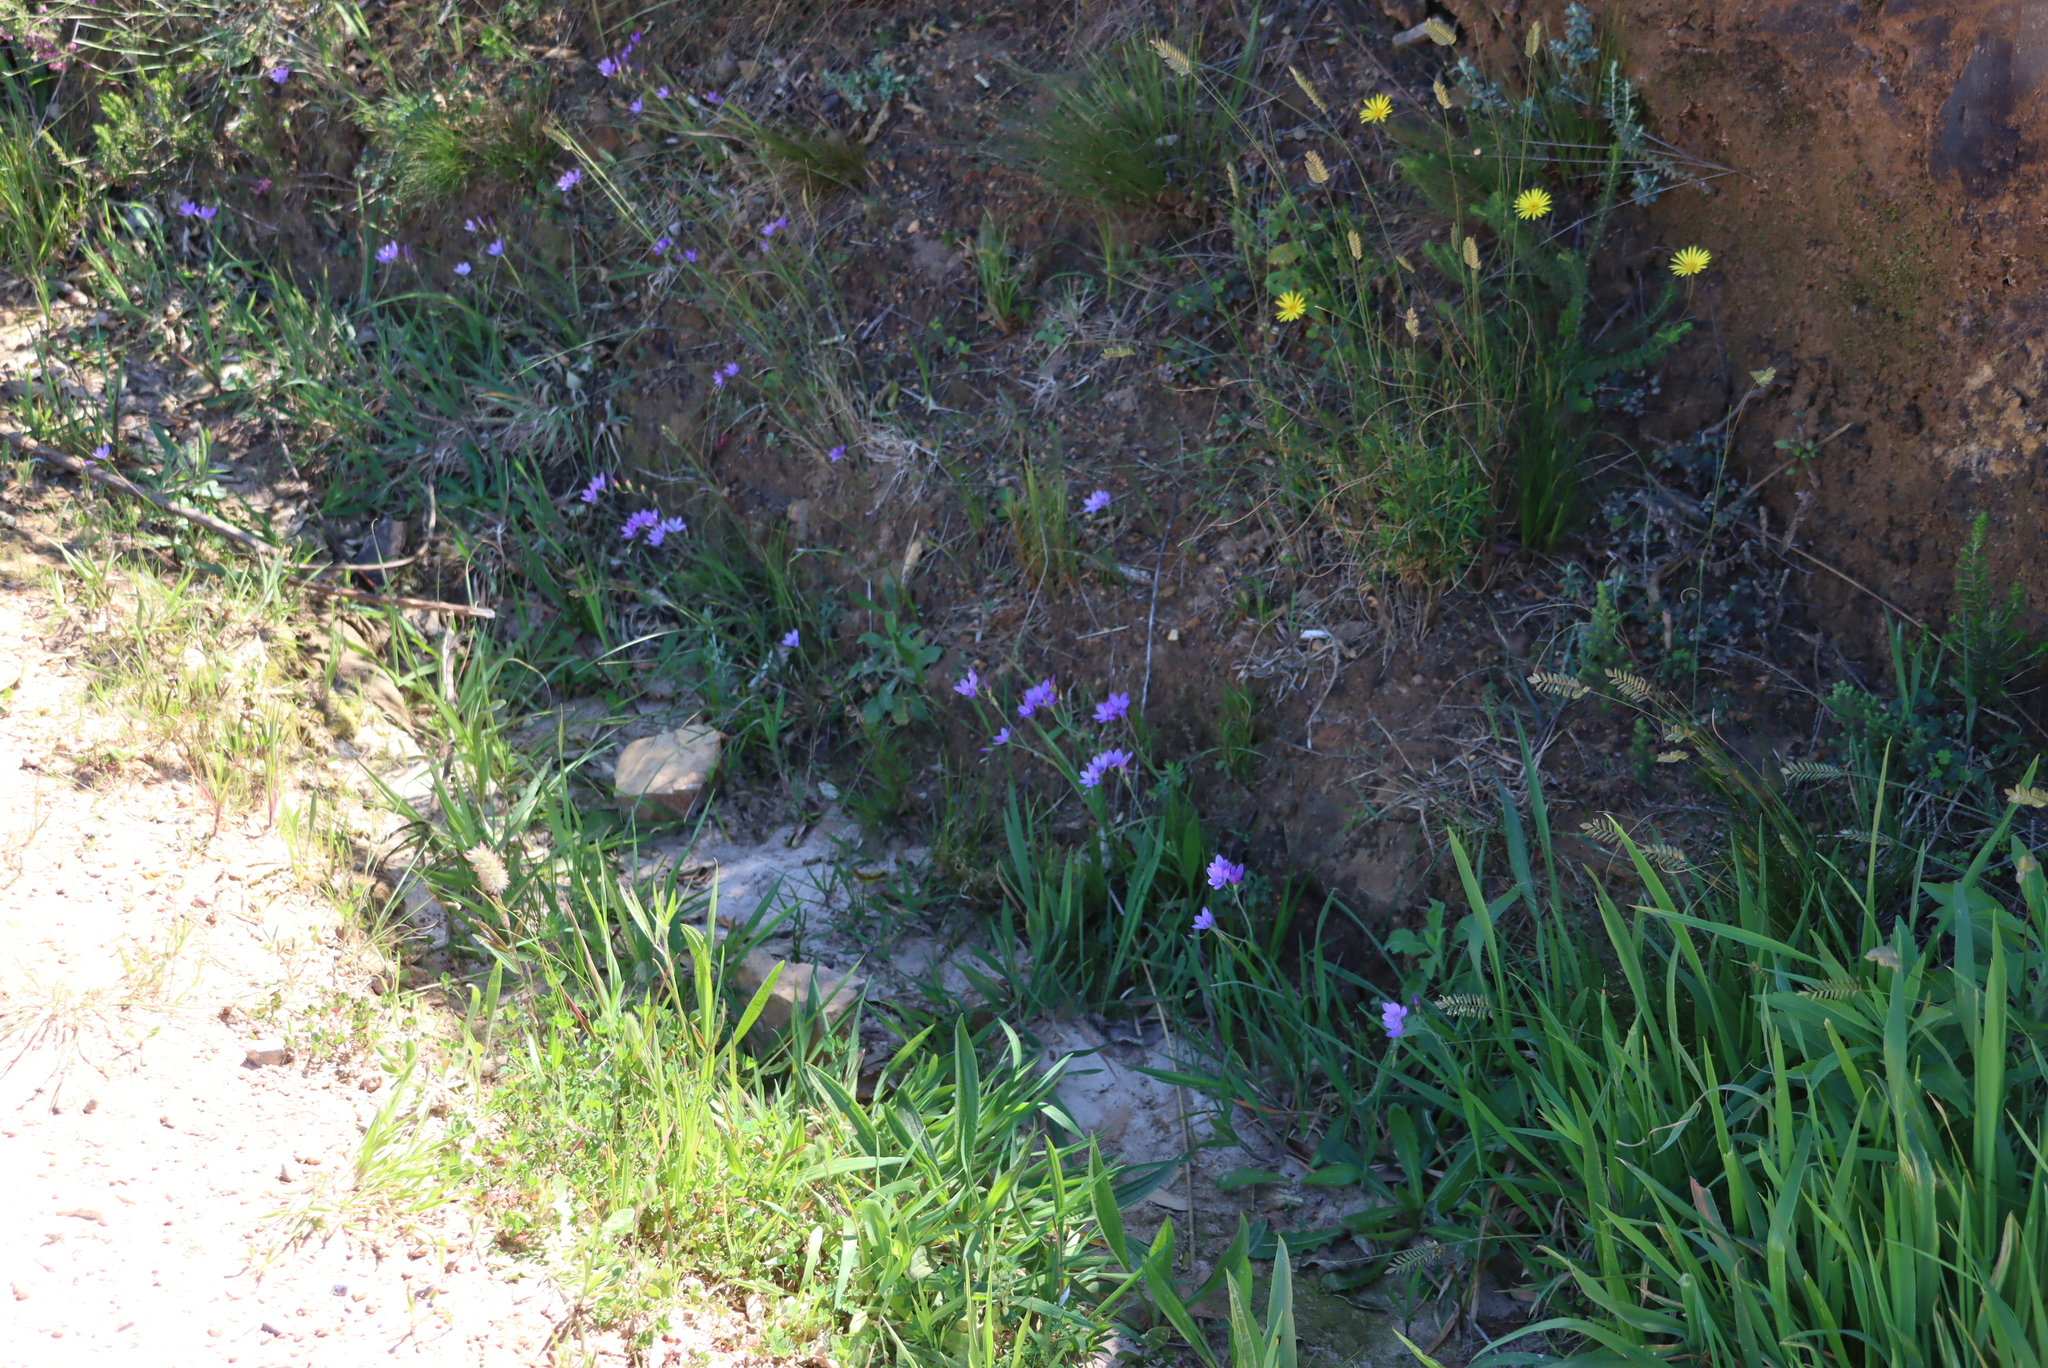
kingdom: Plantae
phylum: Tracheophyta
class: Liliopsida
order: Asparagales
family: Iridaceae
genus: Geissorhiza
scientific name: Geissorhiza aspera
